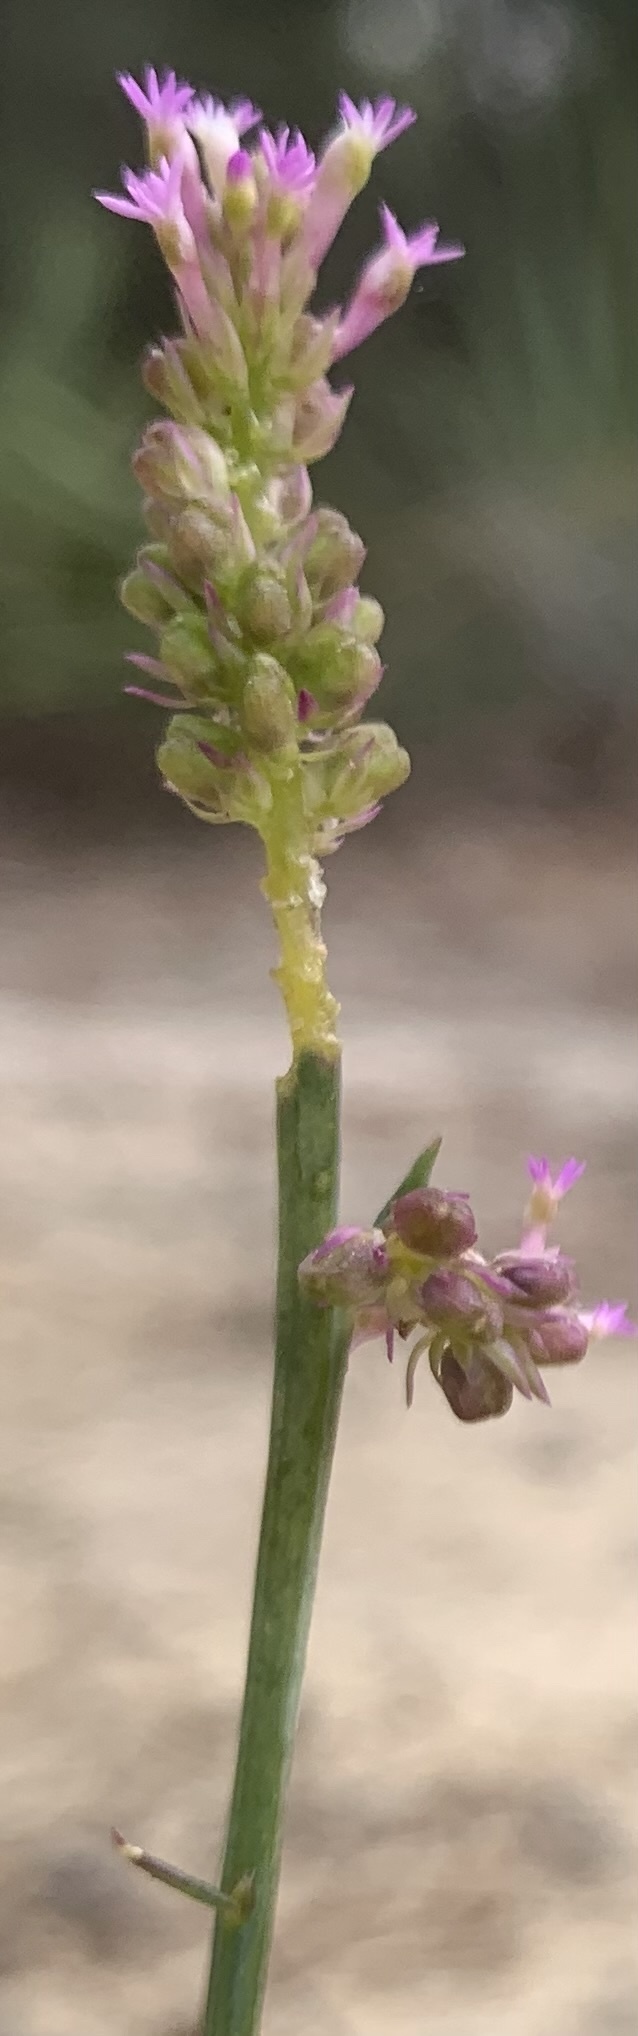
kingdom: Plantae
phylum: Tracheophyta
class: Magnoliopsida
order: Fabales
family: Polygalaceae
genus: Polygala
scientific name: Polygala incarnata
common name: Pink milkwort
